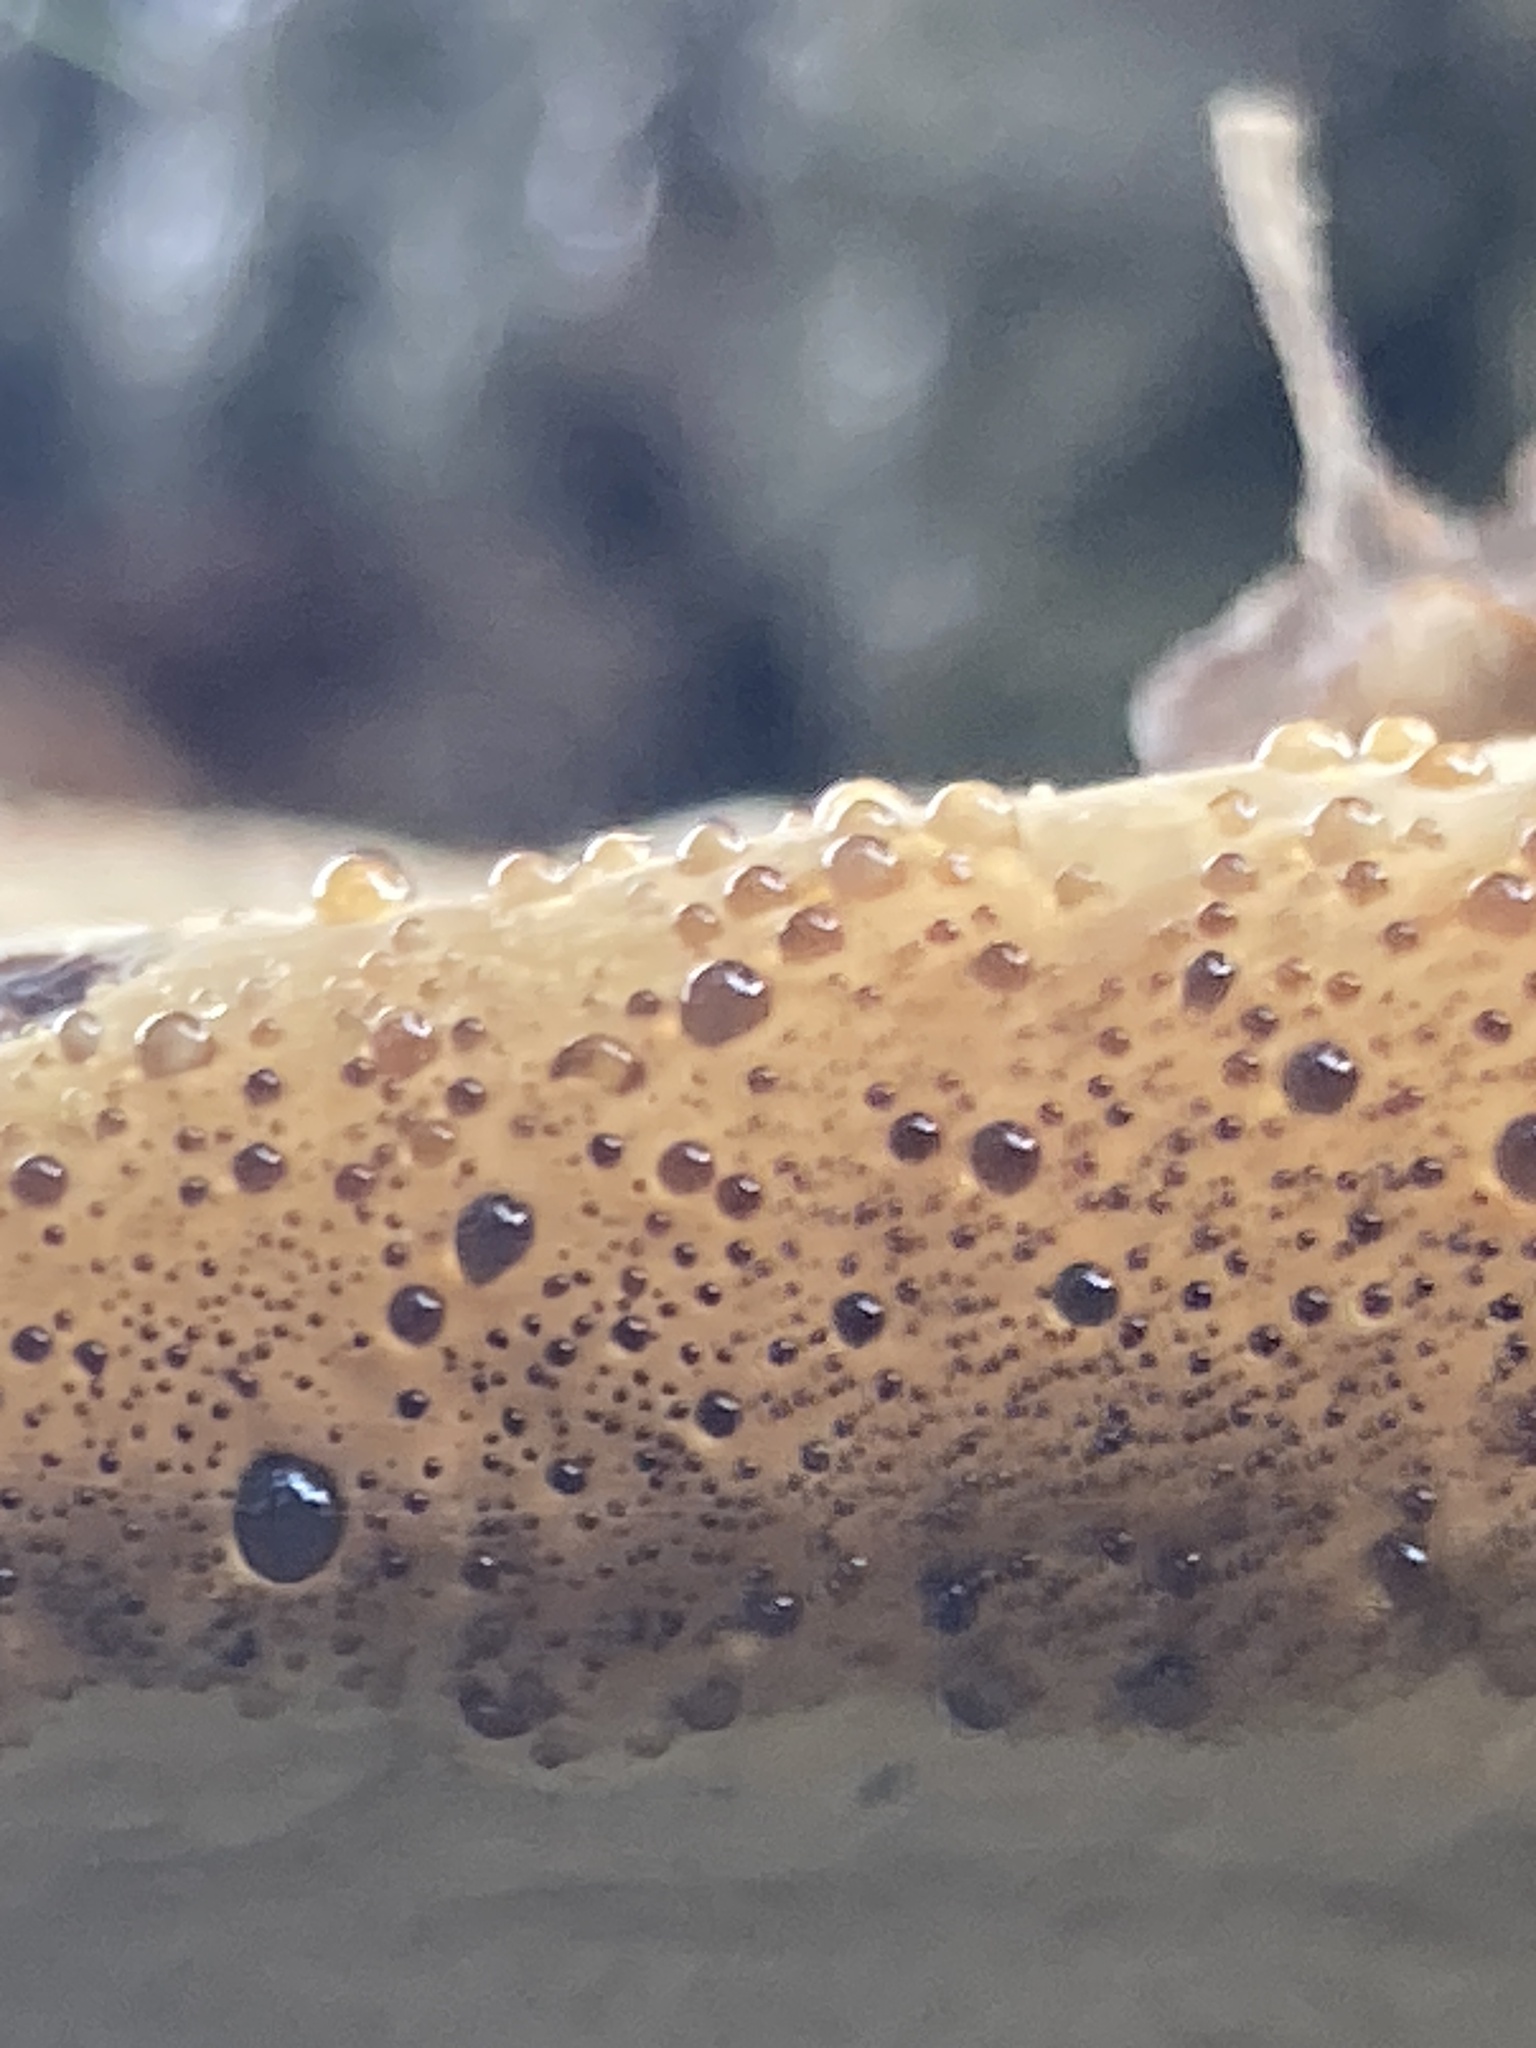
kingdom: Fungi
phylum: Basidiomycota
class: Agaricomycetes
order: Hymenochaetales
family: Hymenochaetaceae
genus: Pseudoinonotus
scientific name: Pseudoinonotus dryadeus
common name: Oak bracket
